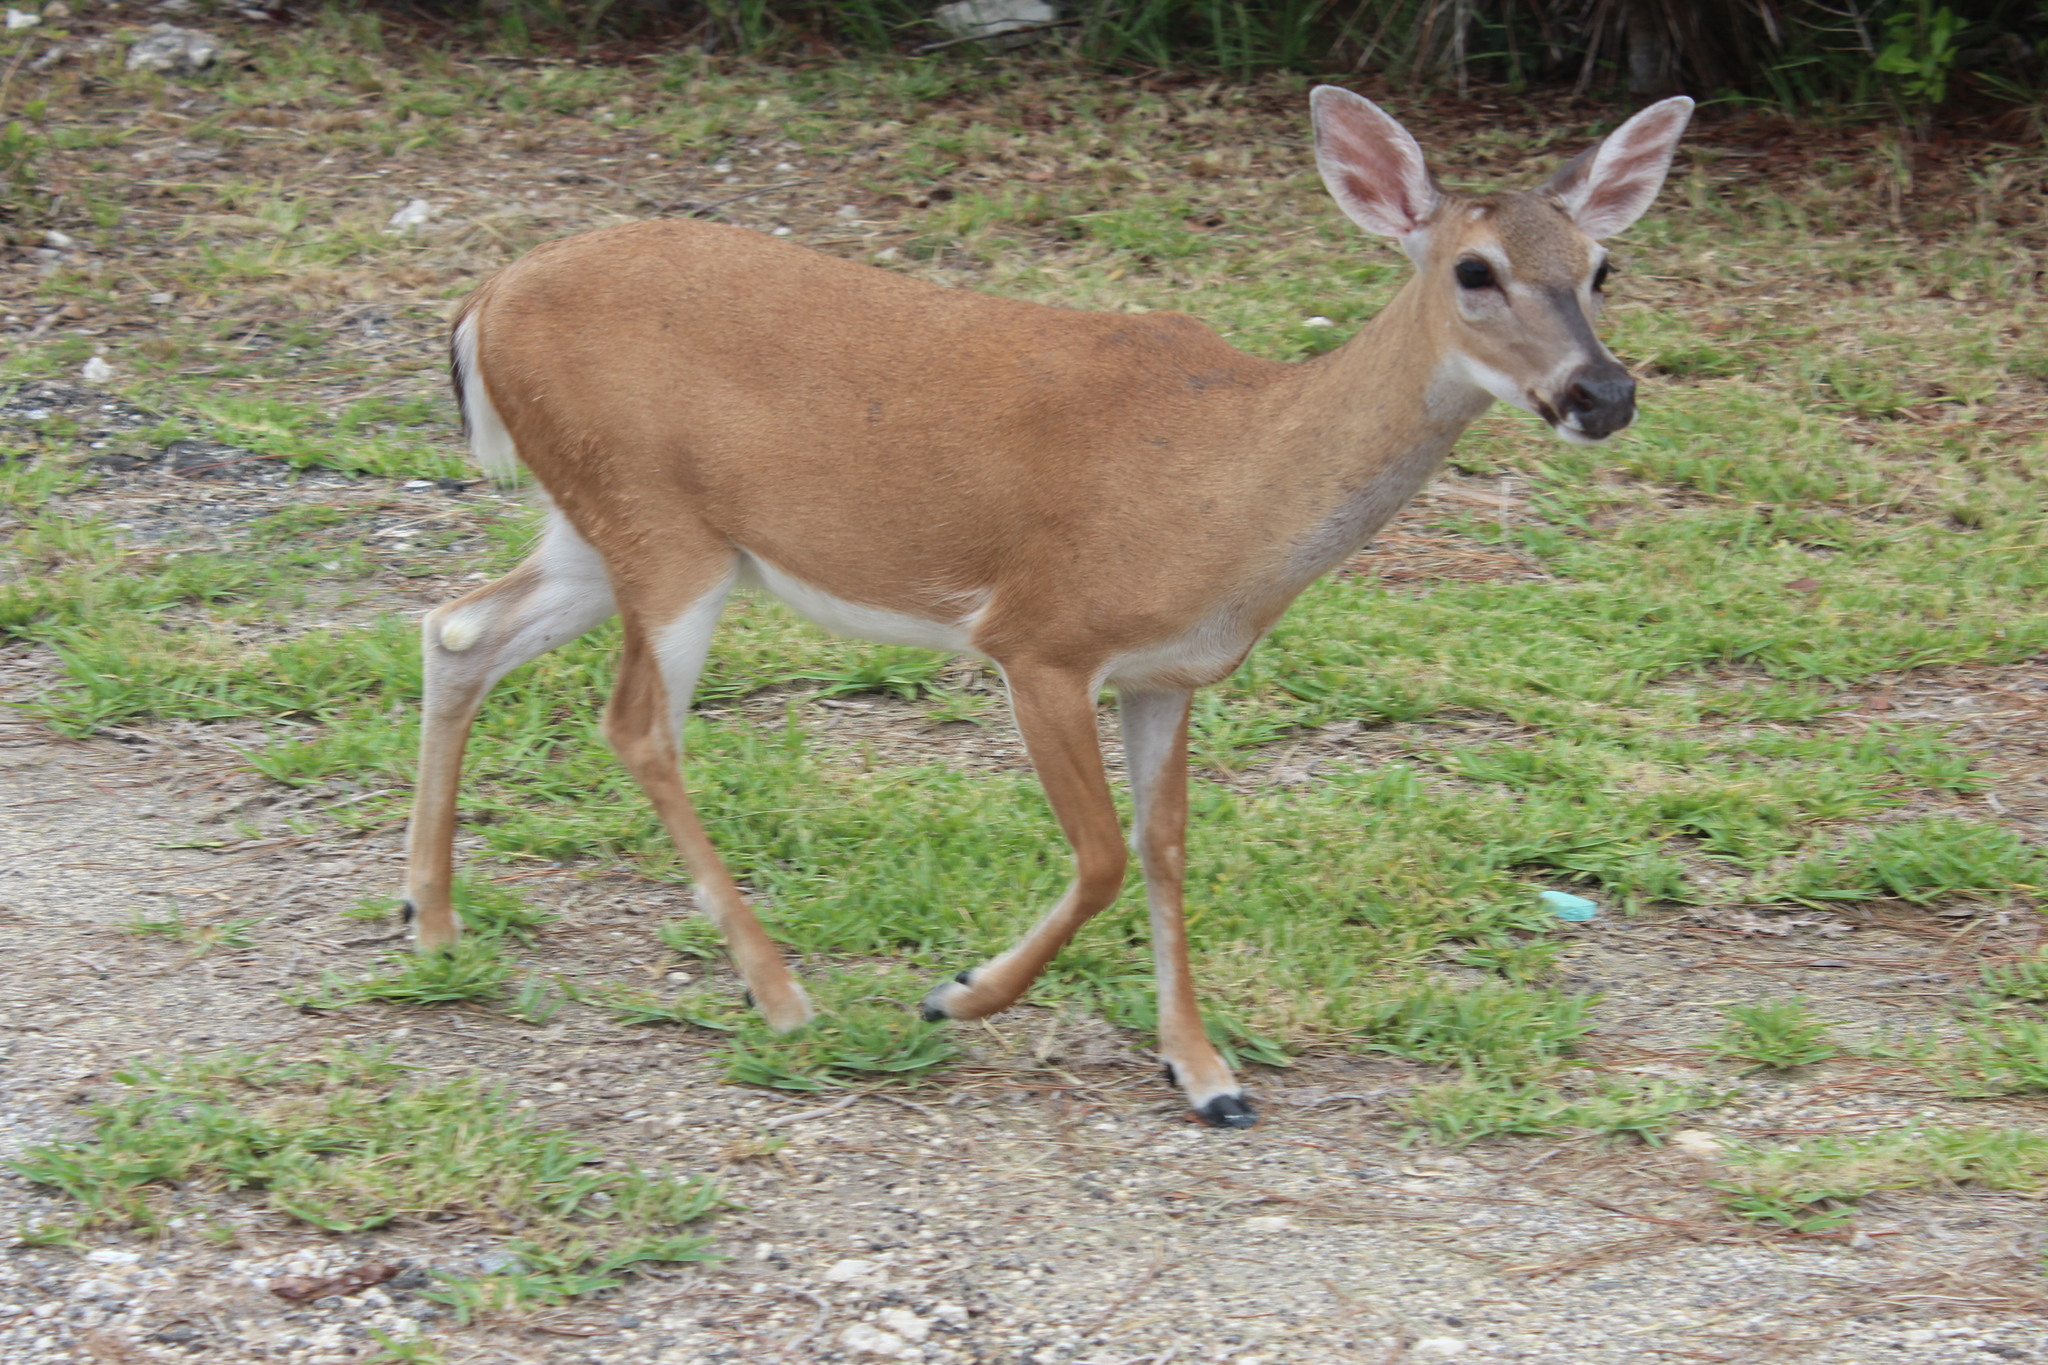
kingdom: Animalia
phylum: Chordata
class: Mammalia
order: Artiodactyla
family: Cervidae
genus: Odocoileus
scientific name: Odocoileus virginianus
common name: White-tailed deer
